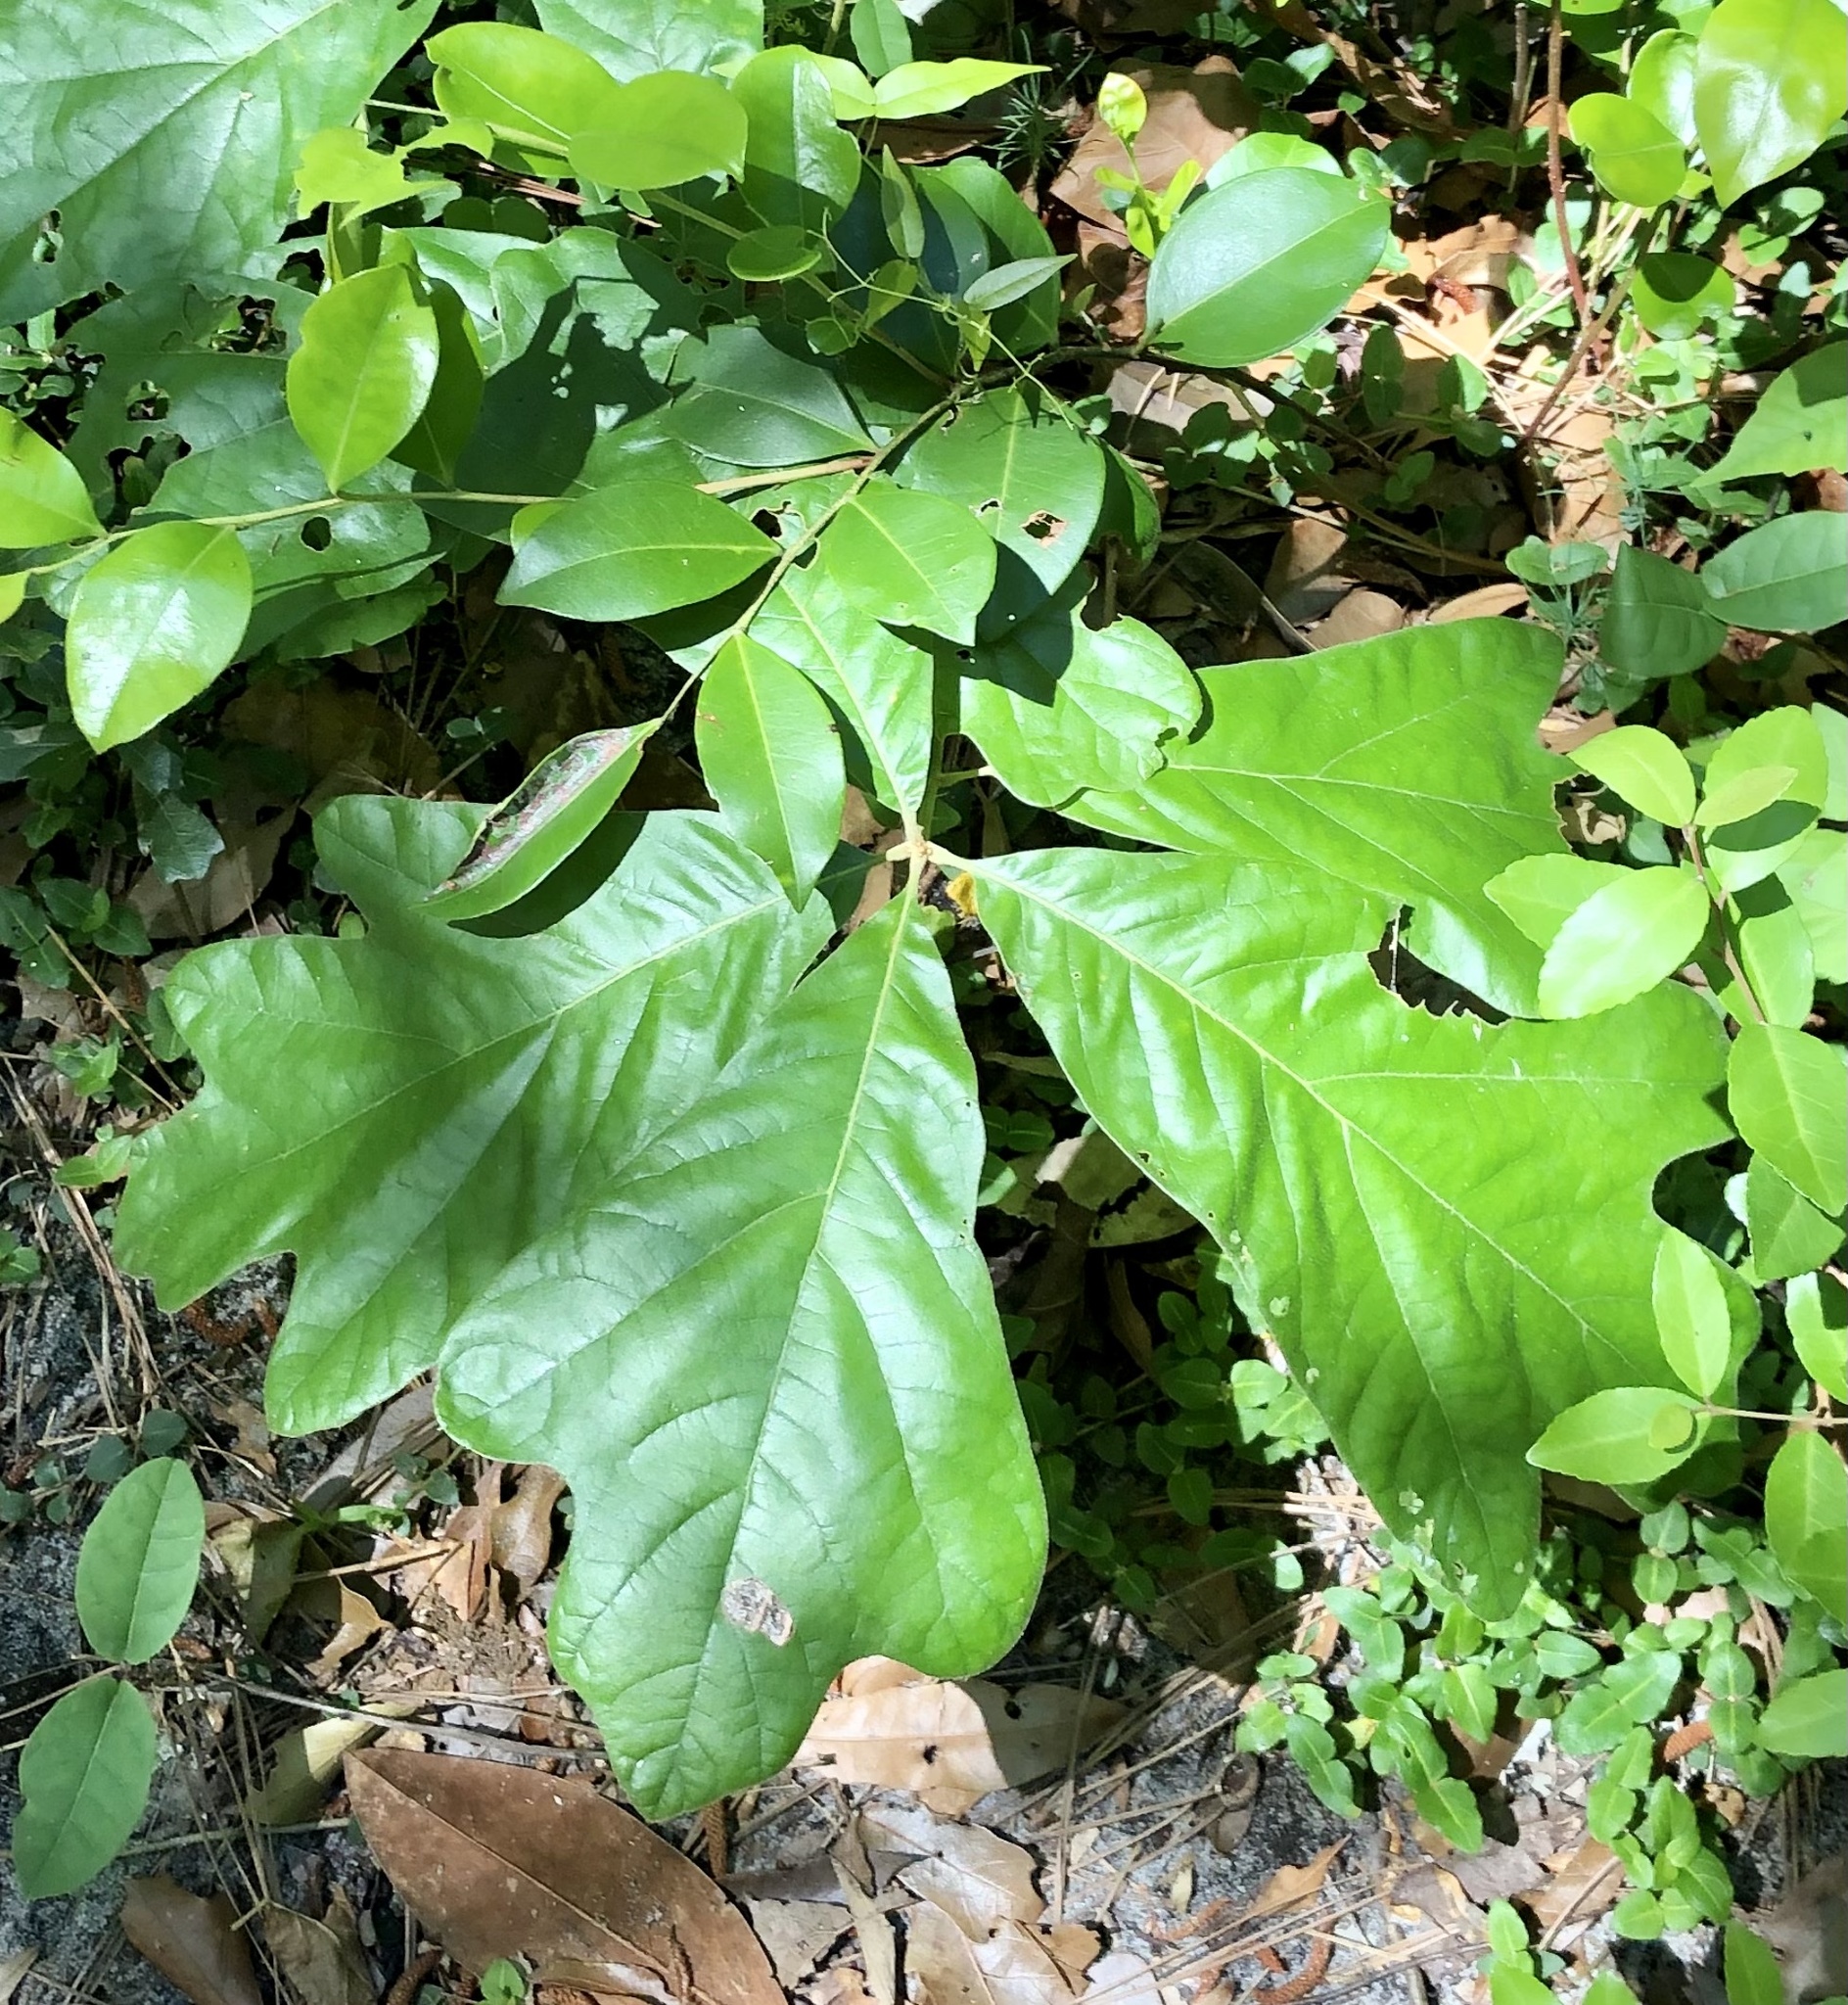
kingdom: Plantae
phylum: Tracheophyta
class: Magnoliopsida
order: Fagales
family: Fagaceae
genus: Quercus
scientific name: Quercus marilandica
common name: Blackjack oak
